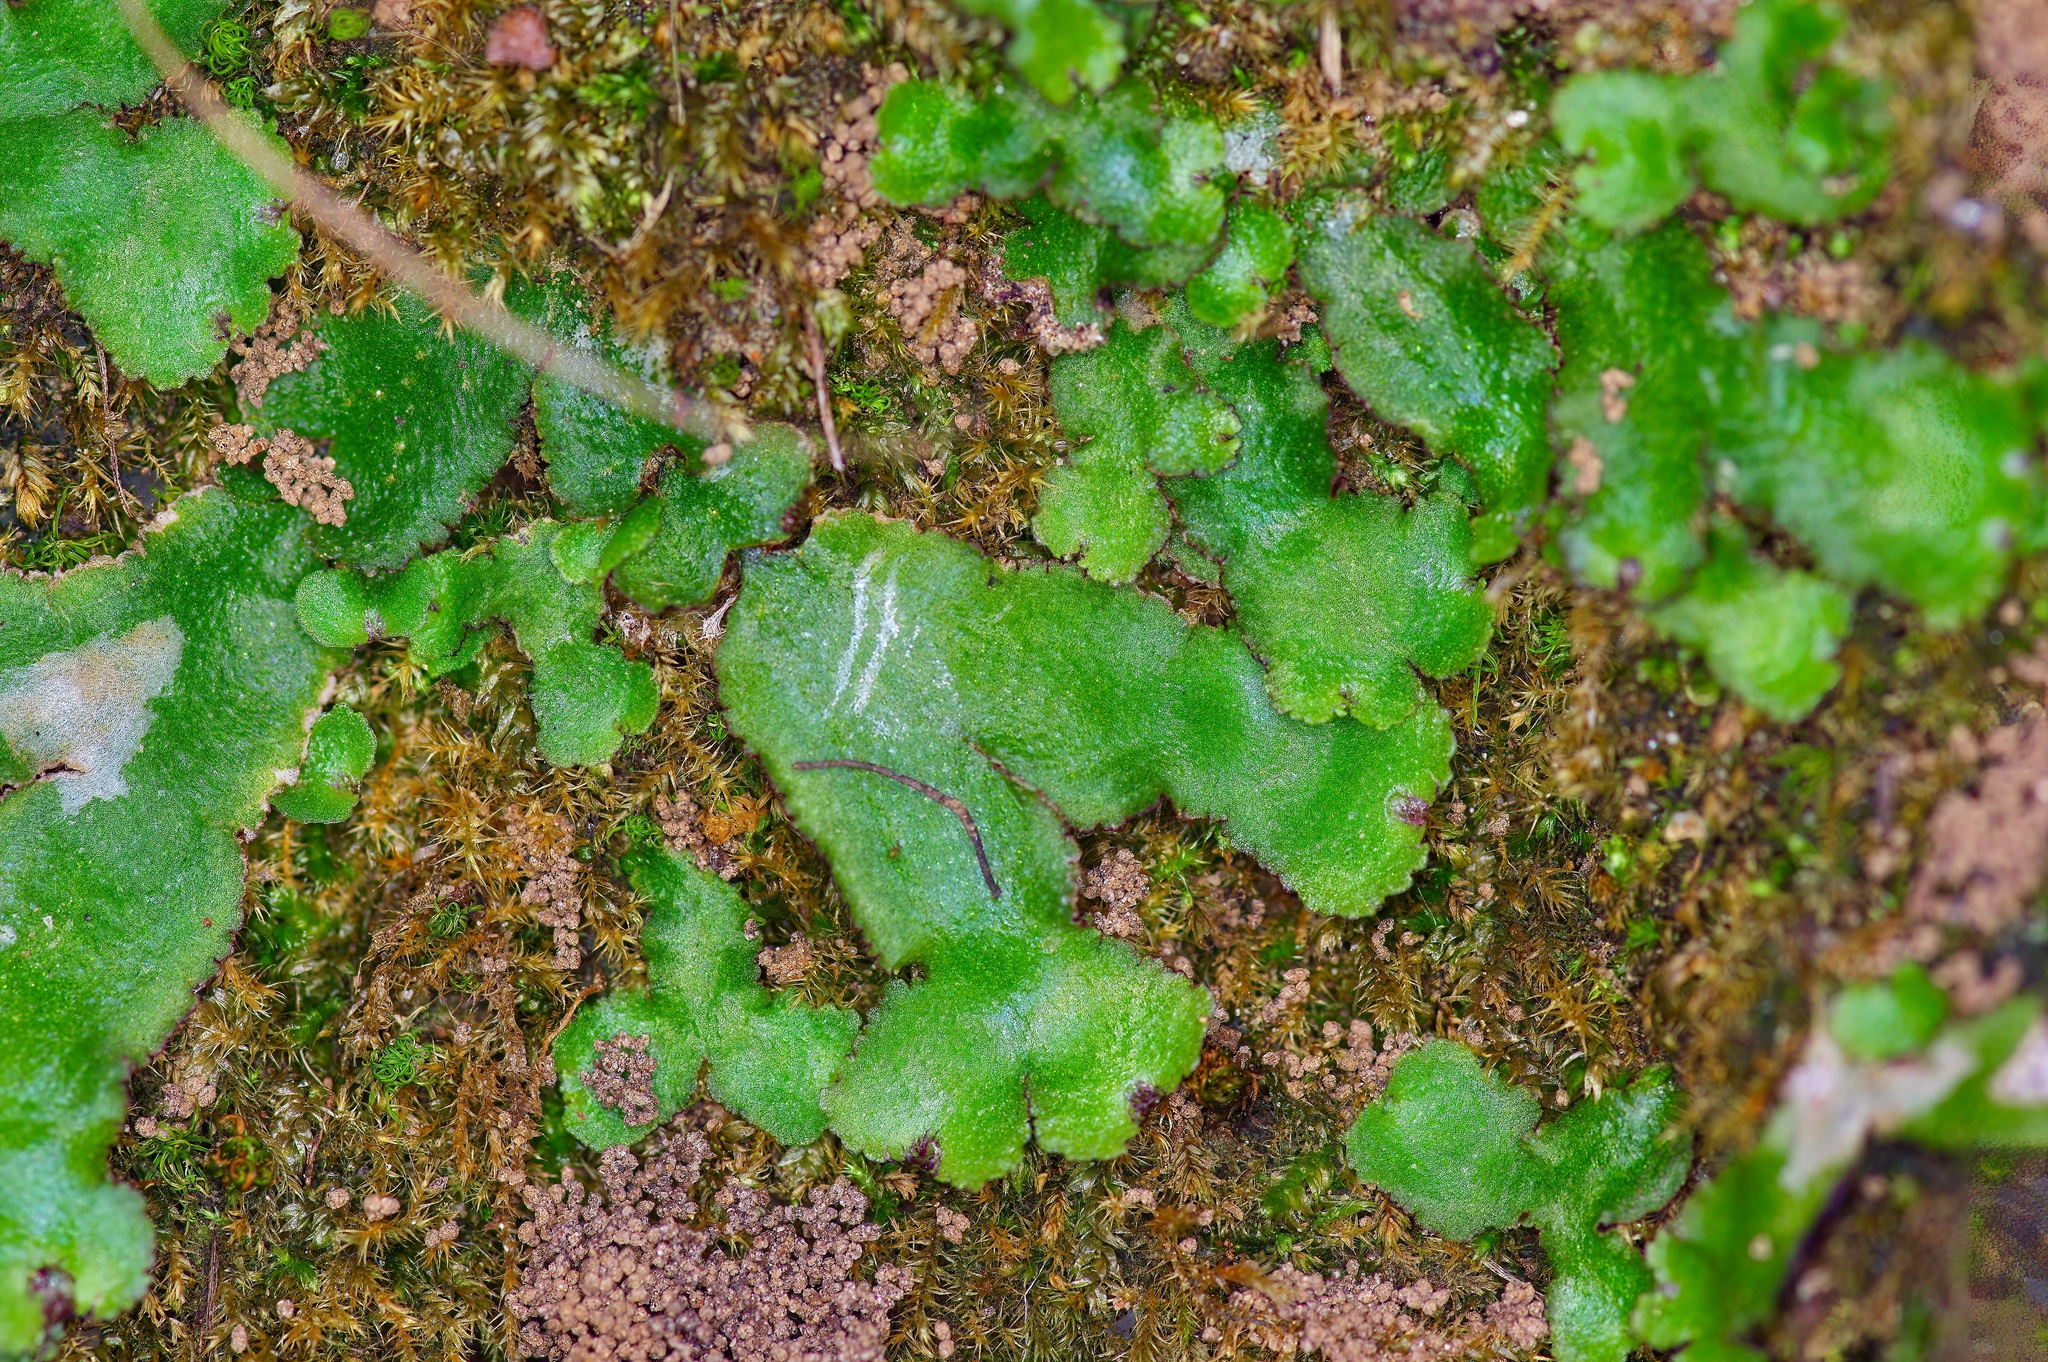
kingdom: Plantae
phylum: Marchantiophyta
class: Marchantiopsida
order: Marchantiales
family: Aytoniaceae
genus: Reboulia
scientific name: Reboulia hemisphaerica
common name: Purple-margined liverwort
